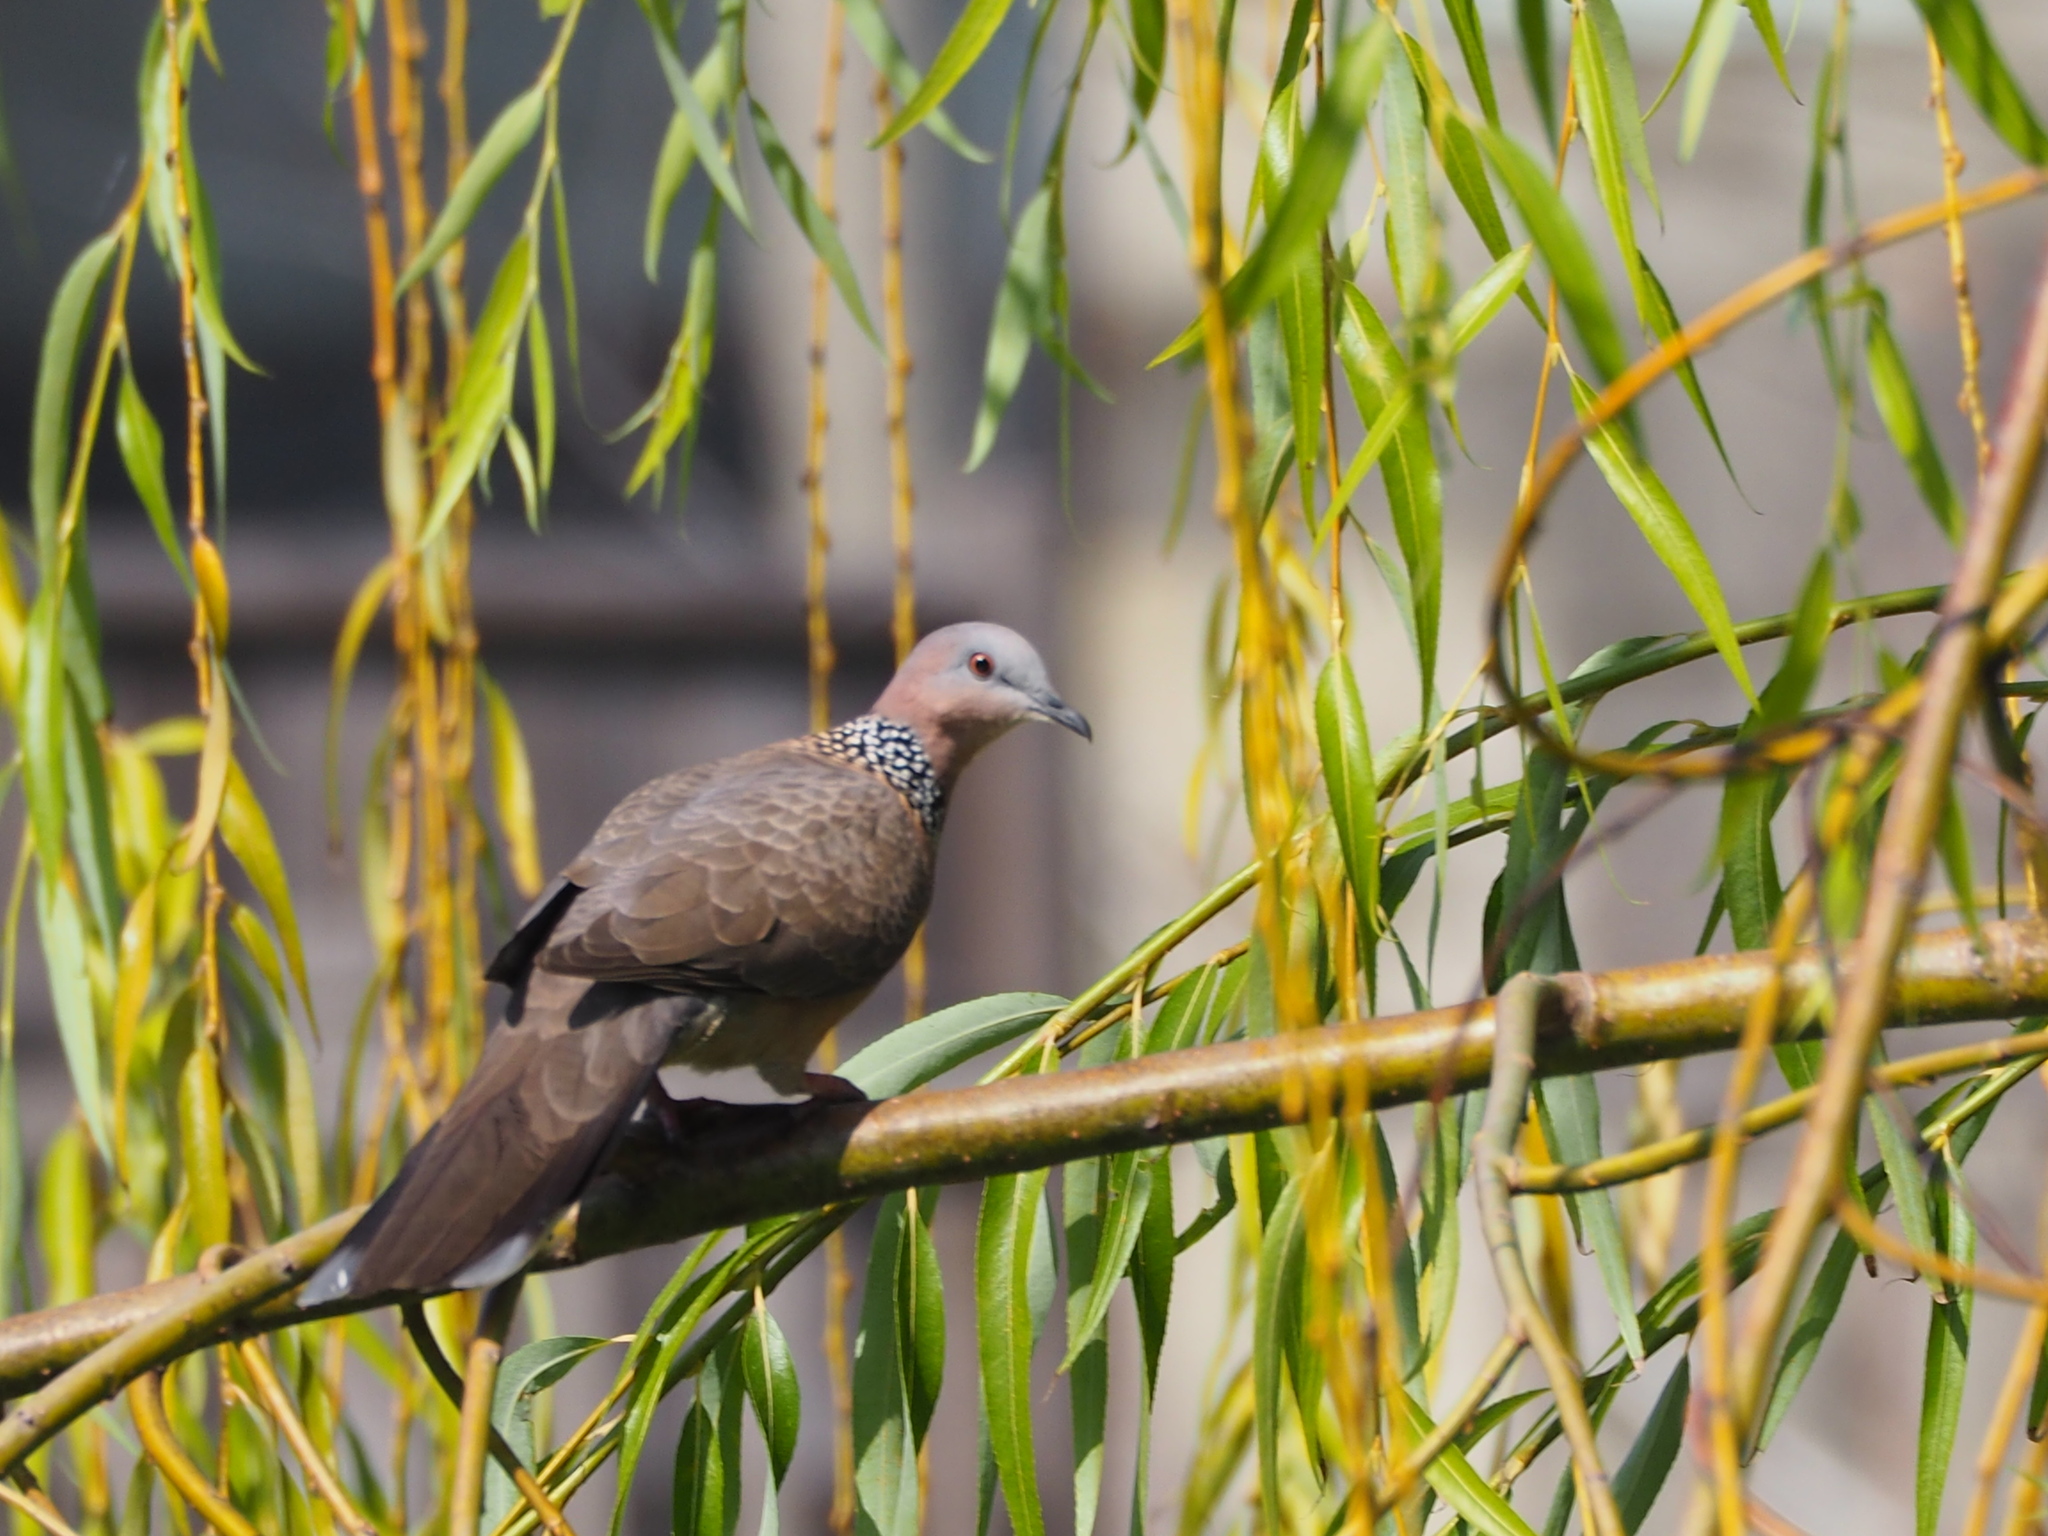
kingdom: Animalia
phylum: Chordata
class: Aves
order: Columbiformes
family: Columbidae
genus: Spilopelia
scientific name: Spilopelia chinensis
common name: Spotted dove
